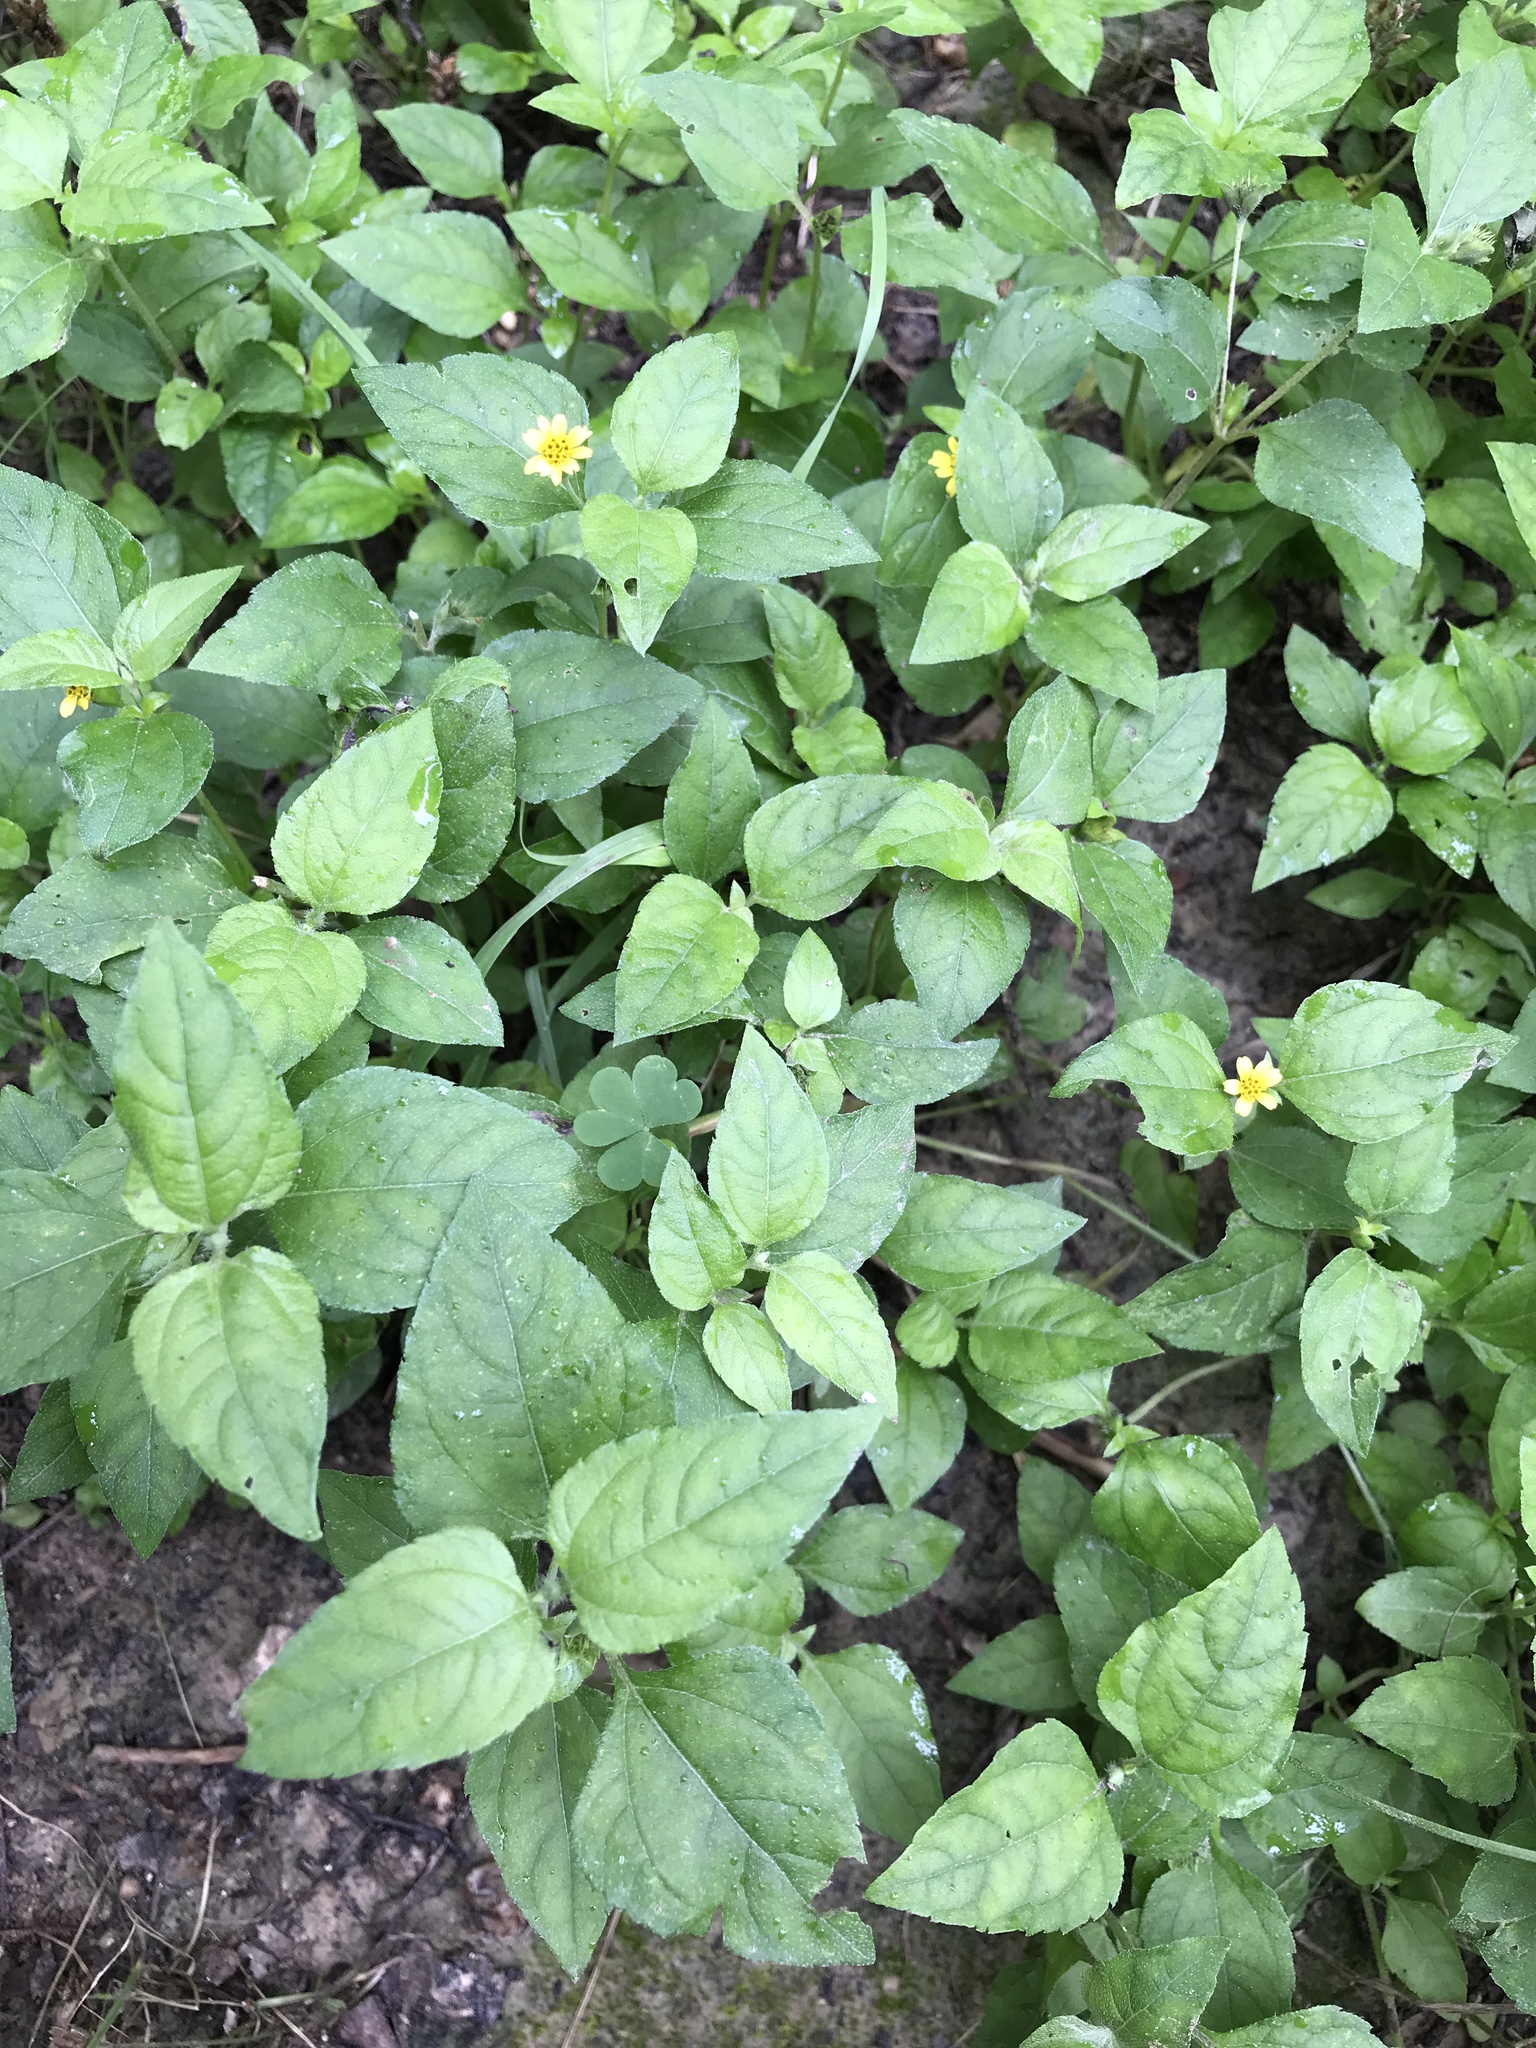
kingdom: Plantae
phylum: Tracheophyta
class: Magnoliopsida
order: Asterales
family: Asteraceae
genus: Calyptocarpus
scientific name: Calyptocarpus vialis
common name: Straggler daisy
